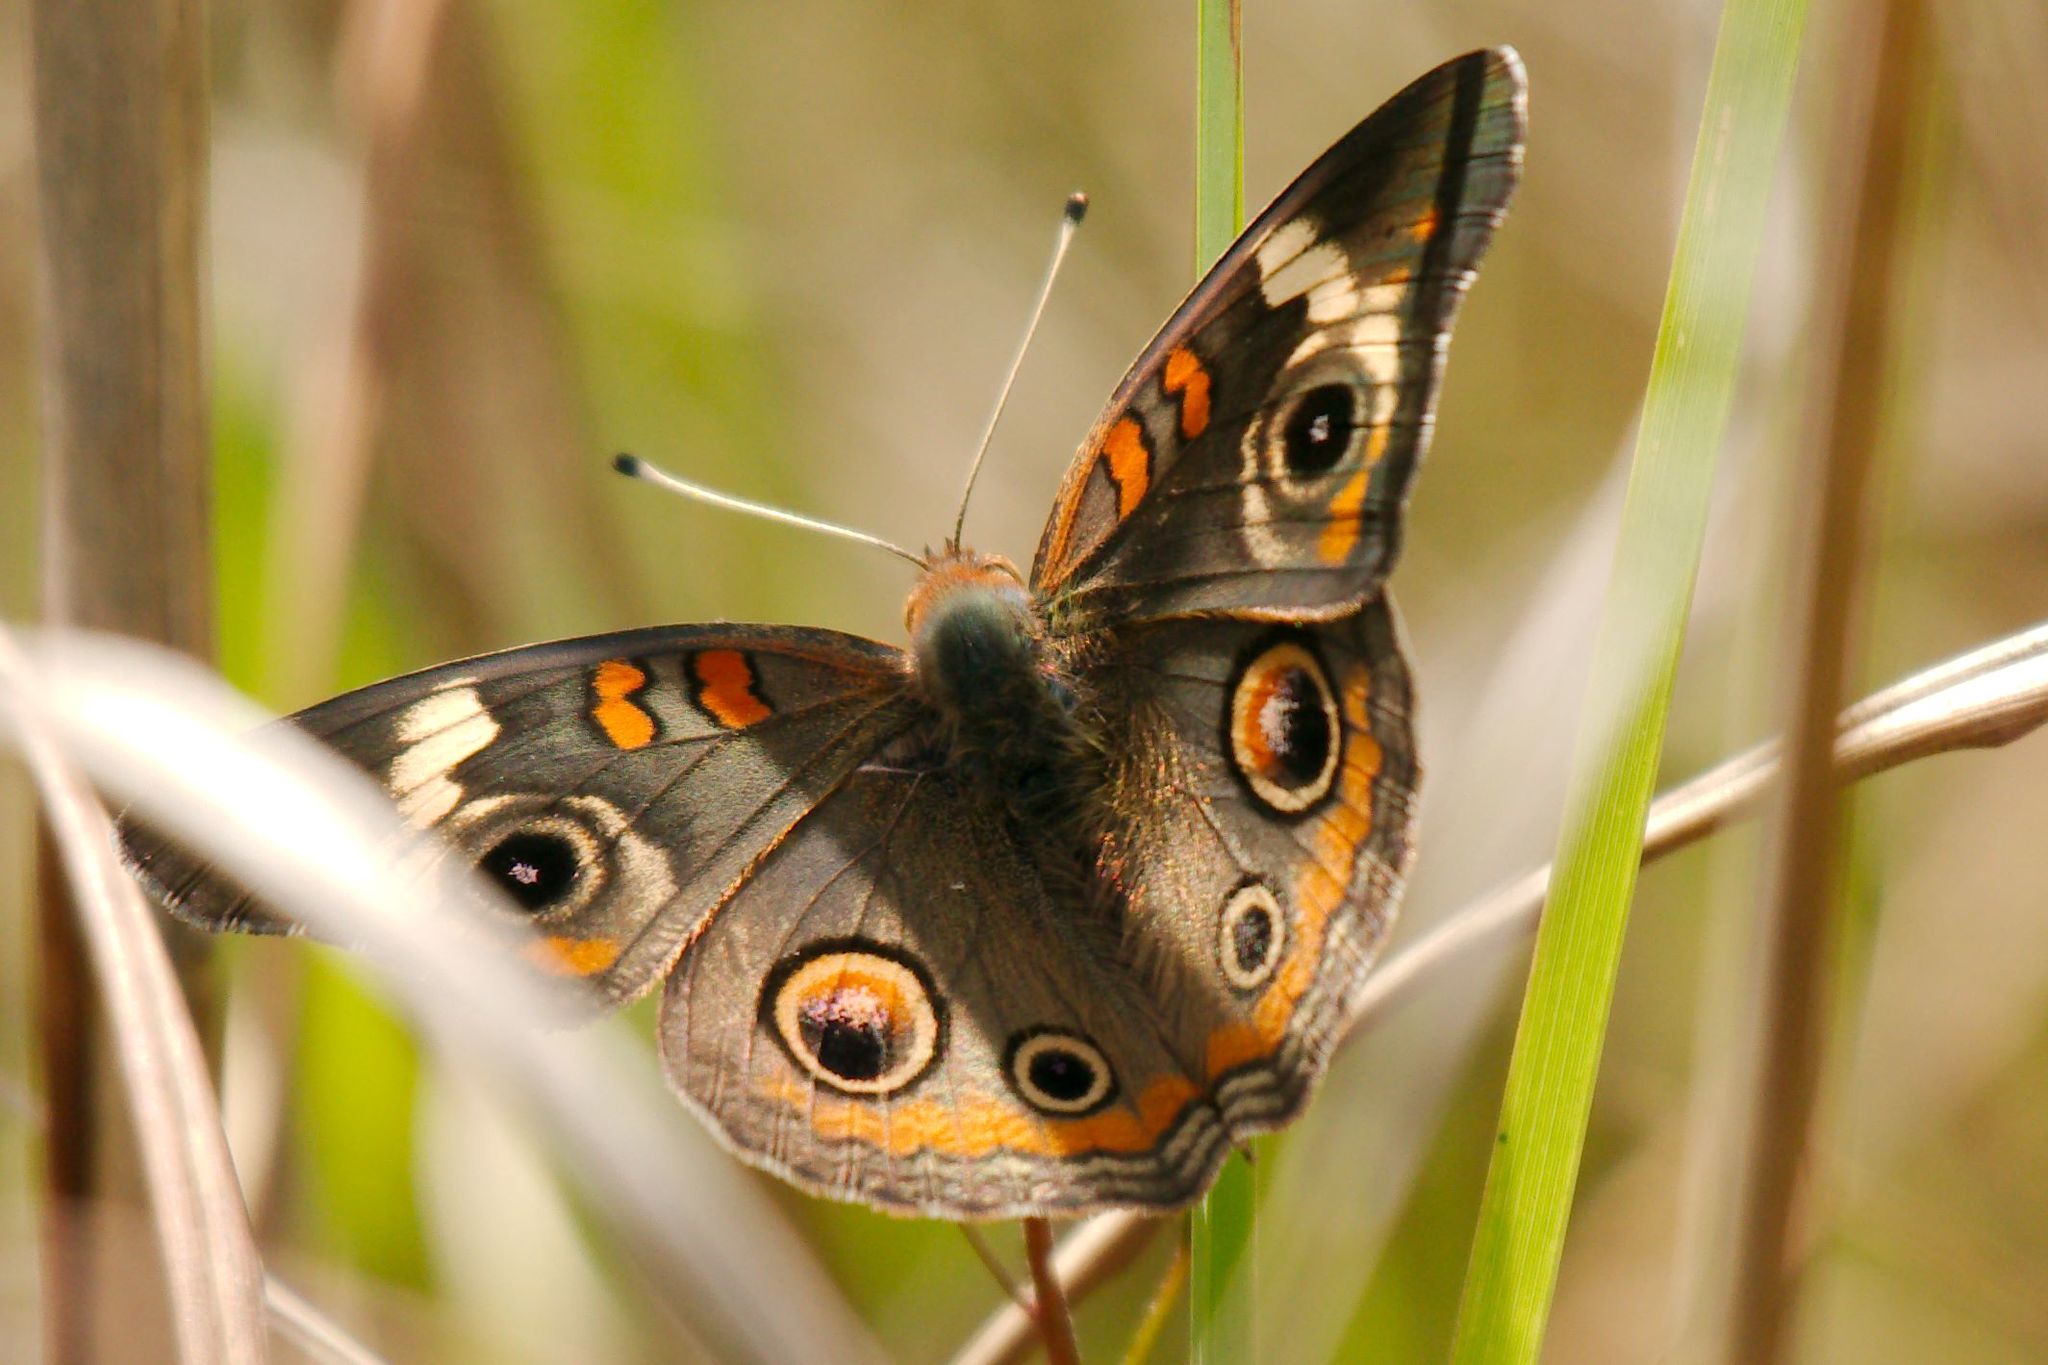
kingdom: Animalia
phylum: Arthropoda
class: Insecta
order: Lepidoptera
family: Nymphalidae
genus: Junonia
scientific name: Junonia coenia
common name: Common buckeye
